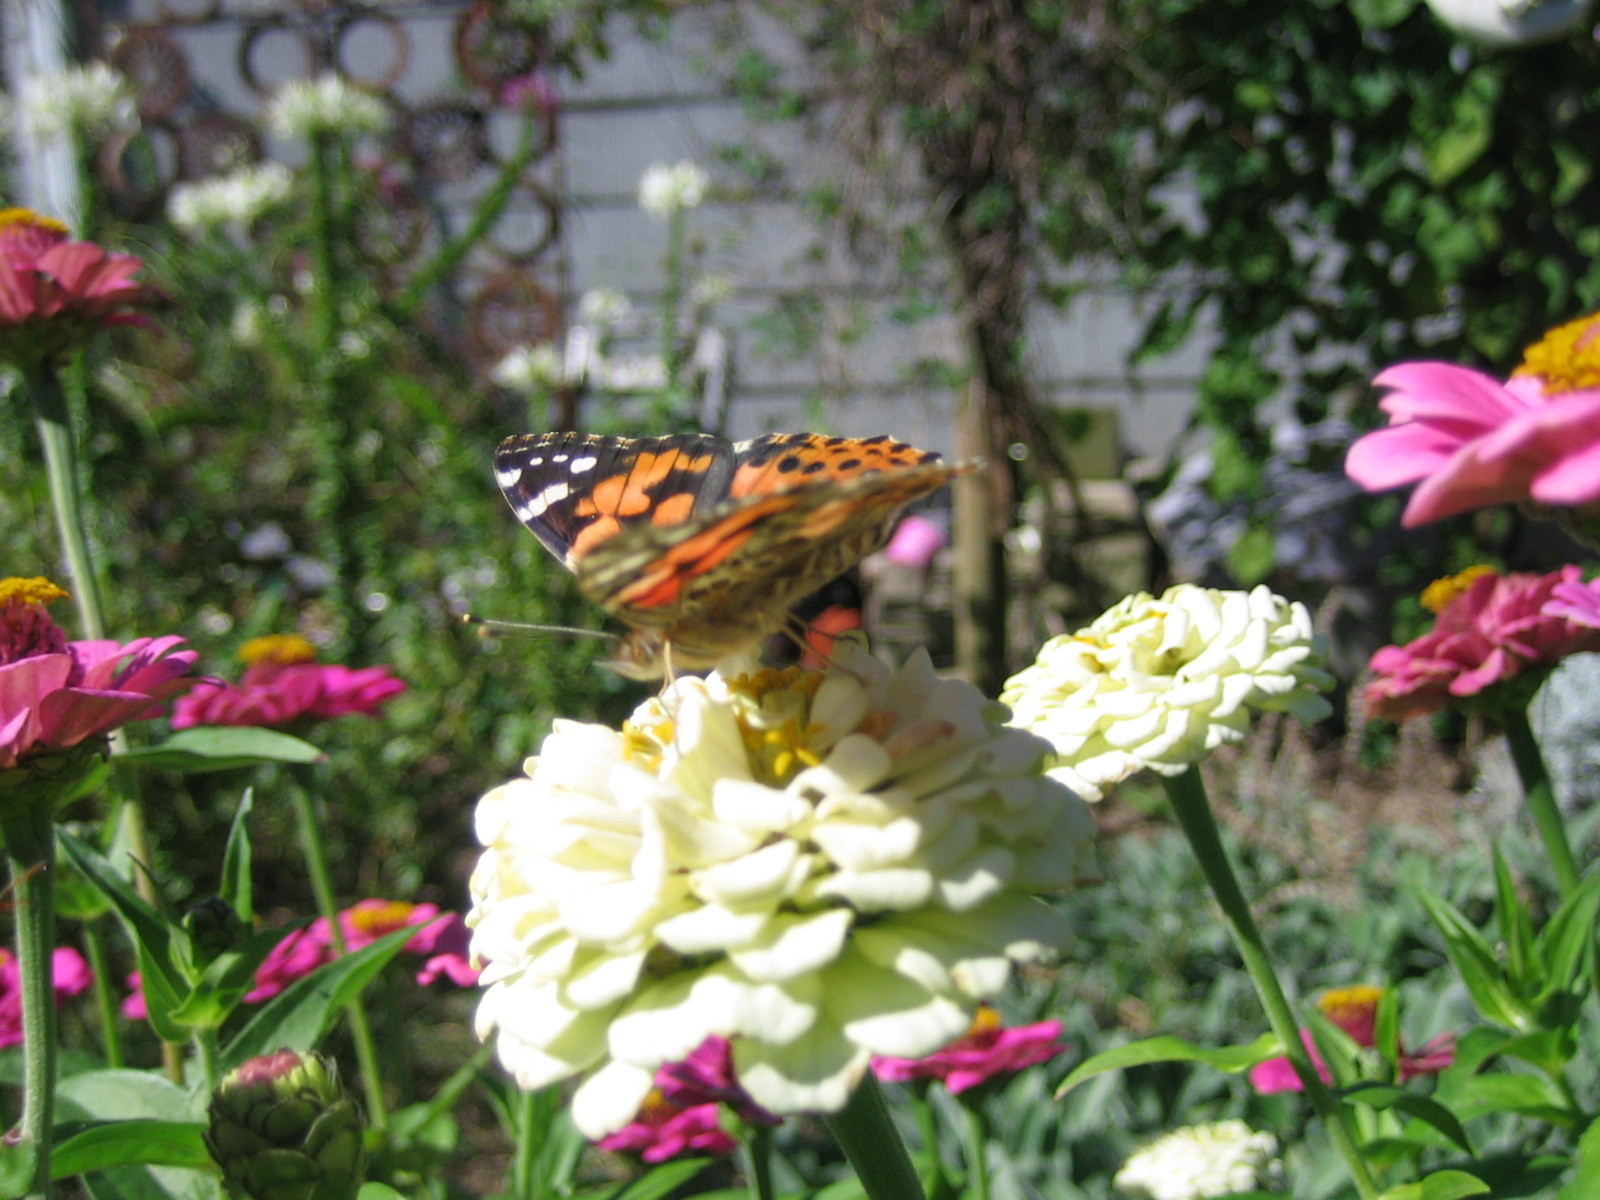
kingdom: Animalia
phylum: Arthropoda
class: Insecta
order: Lepidoptera
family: Nymphalidae
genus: Vanessa
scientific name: Vanessa cardui
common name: Painted lady
